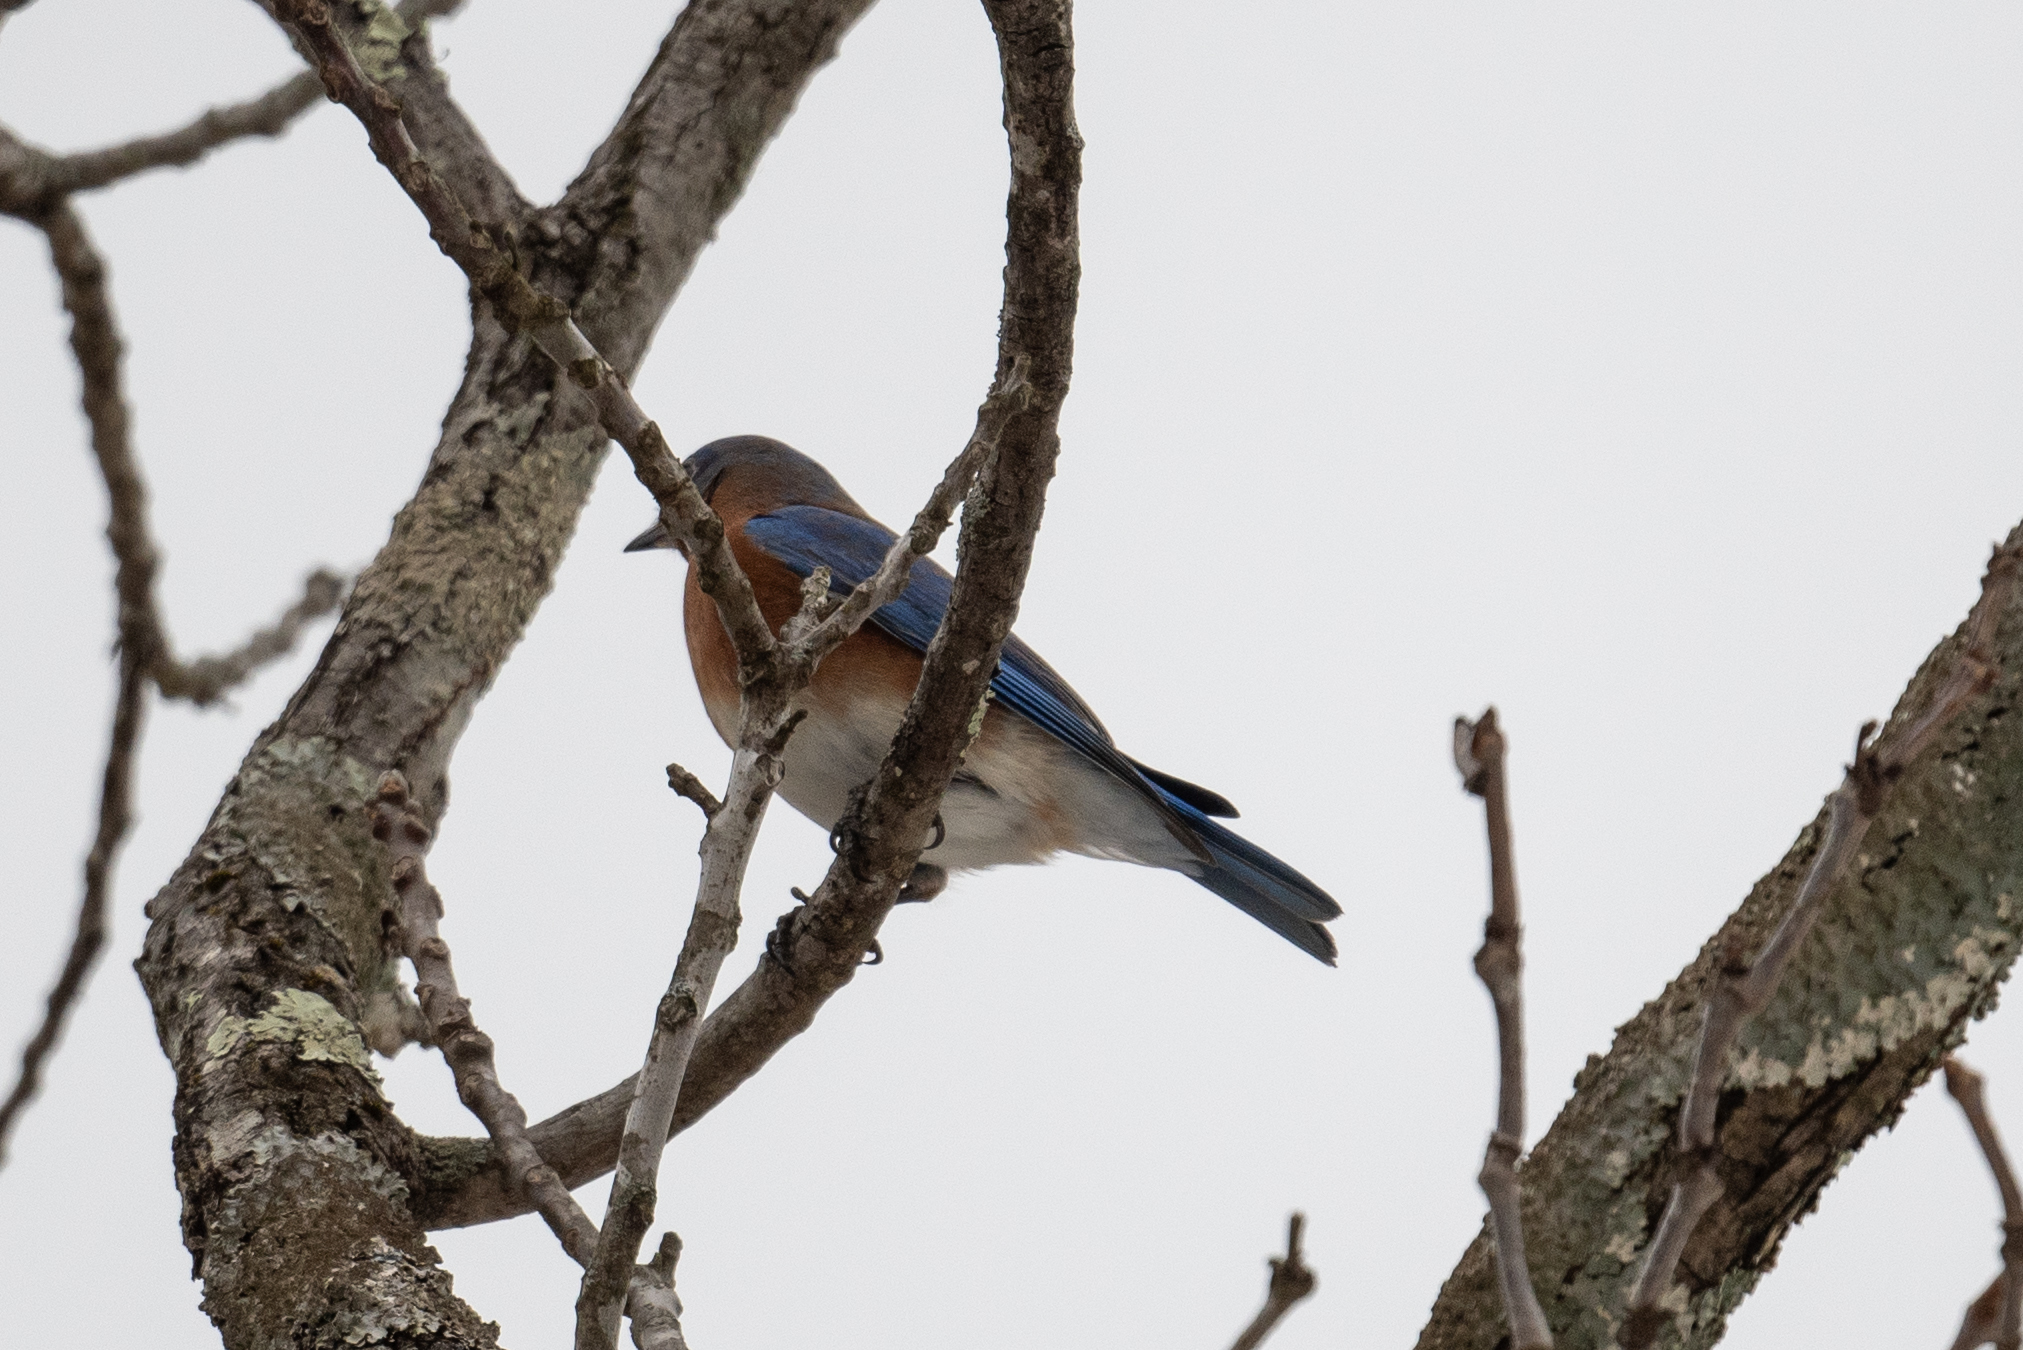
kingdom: Animalia
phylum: Chordata
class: Aves
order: Passeriformes
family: Turdidae
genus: Sialia
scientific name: Sialia sialis
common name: Eastern bluebird
